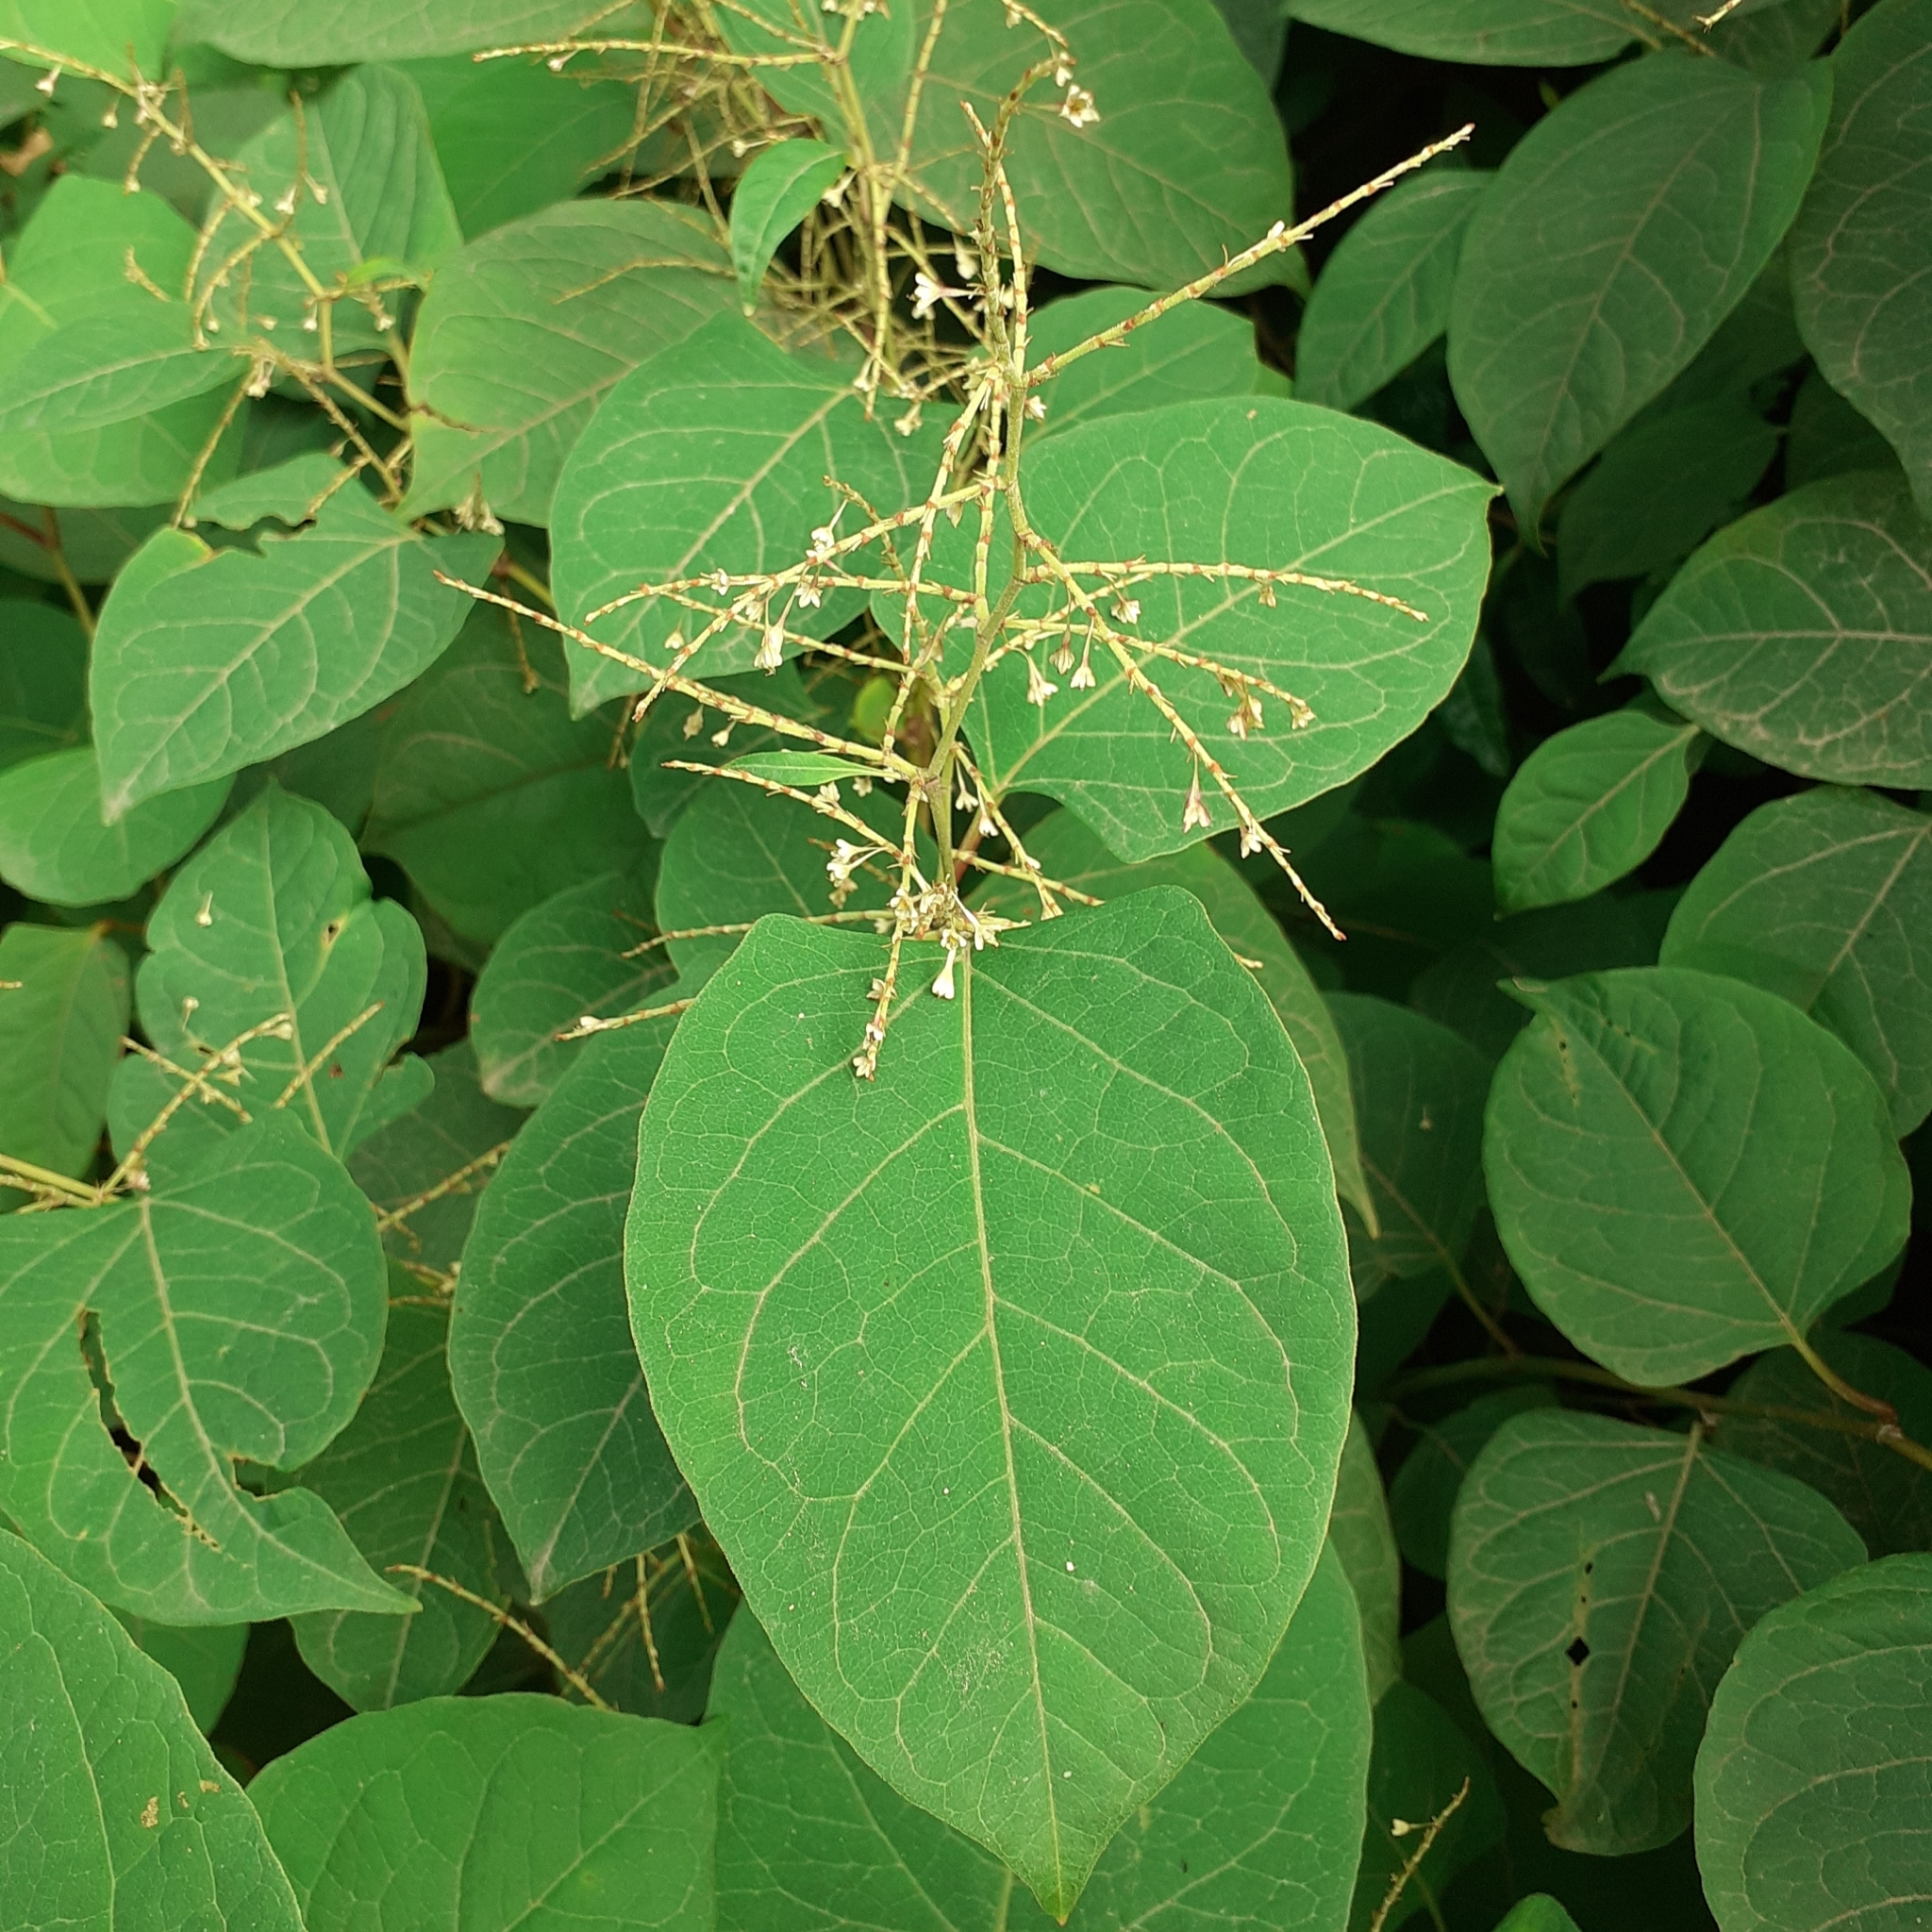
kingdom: Plantae
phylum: Tracheophyta
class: Magnoliopsida
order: Caryophyllales
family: Polygonaceae
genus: Reynoutria
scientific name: Reynoutria japonica
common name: Japanese knotweed
